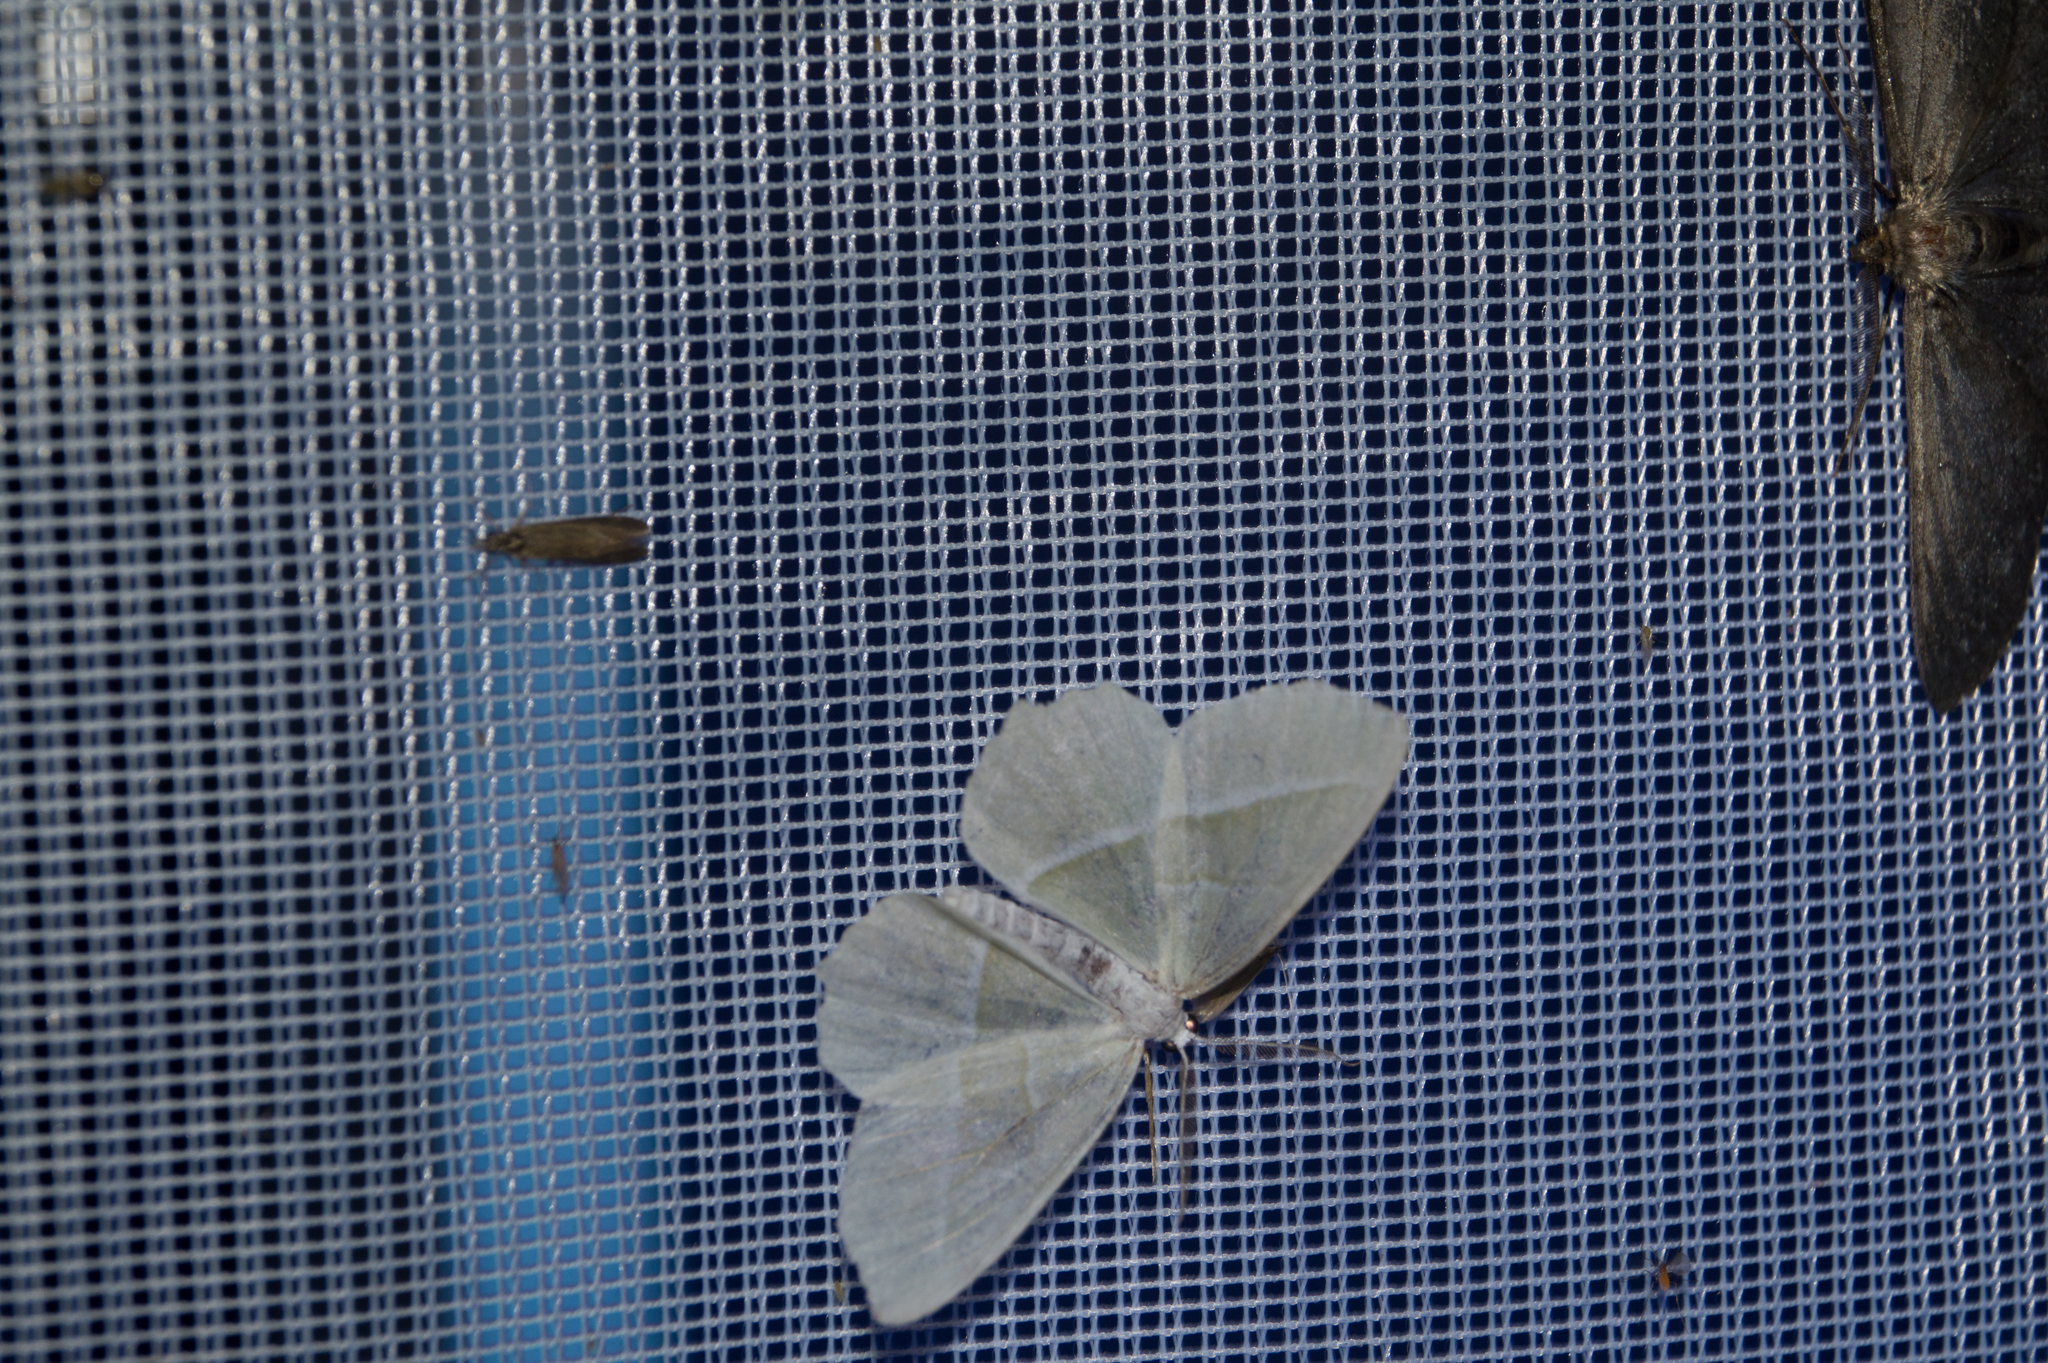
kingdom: Animalia
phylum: Arthropoda
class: Insecta
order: Lepidoptera
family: Geometridae
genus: Campaea
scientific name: Campaea margaritaria
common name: Light emerald
